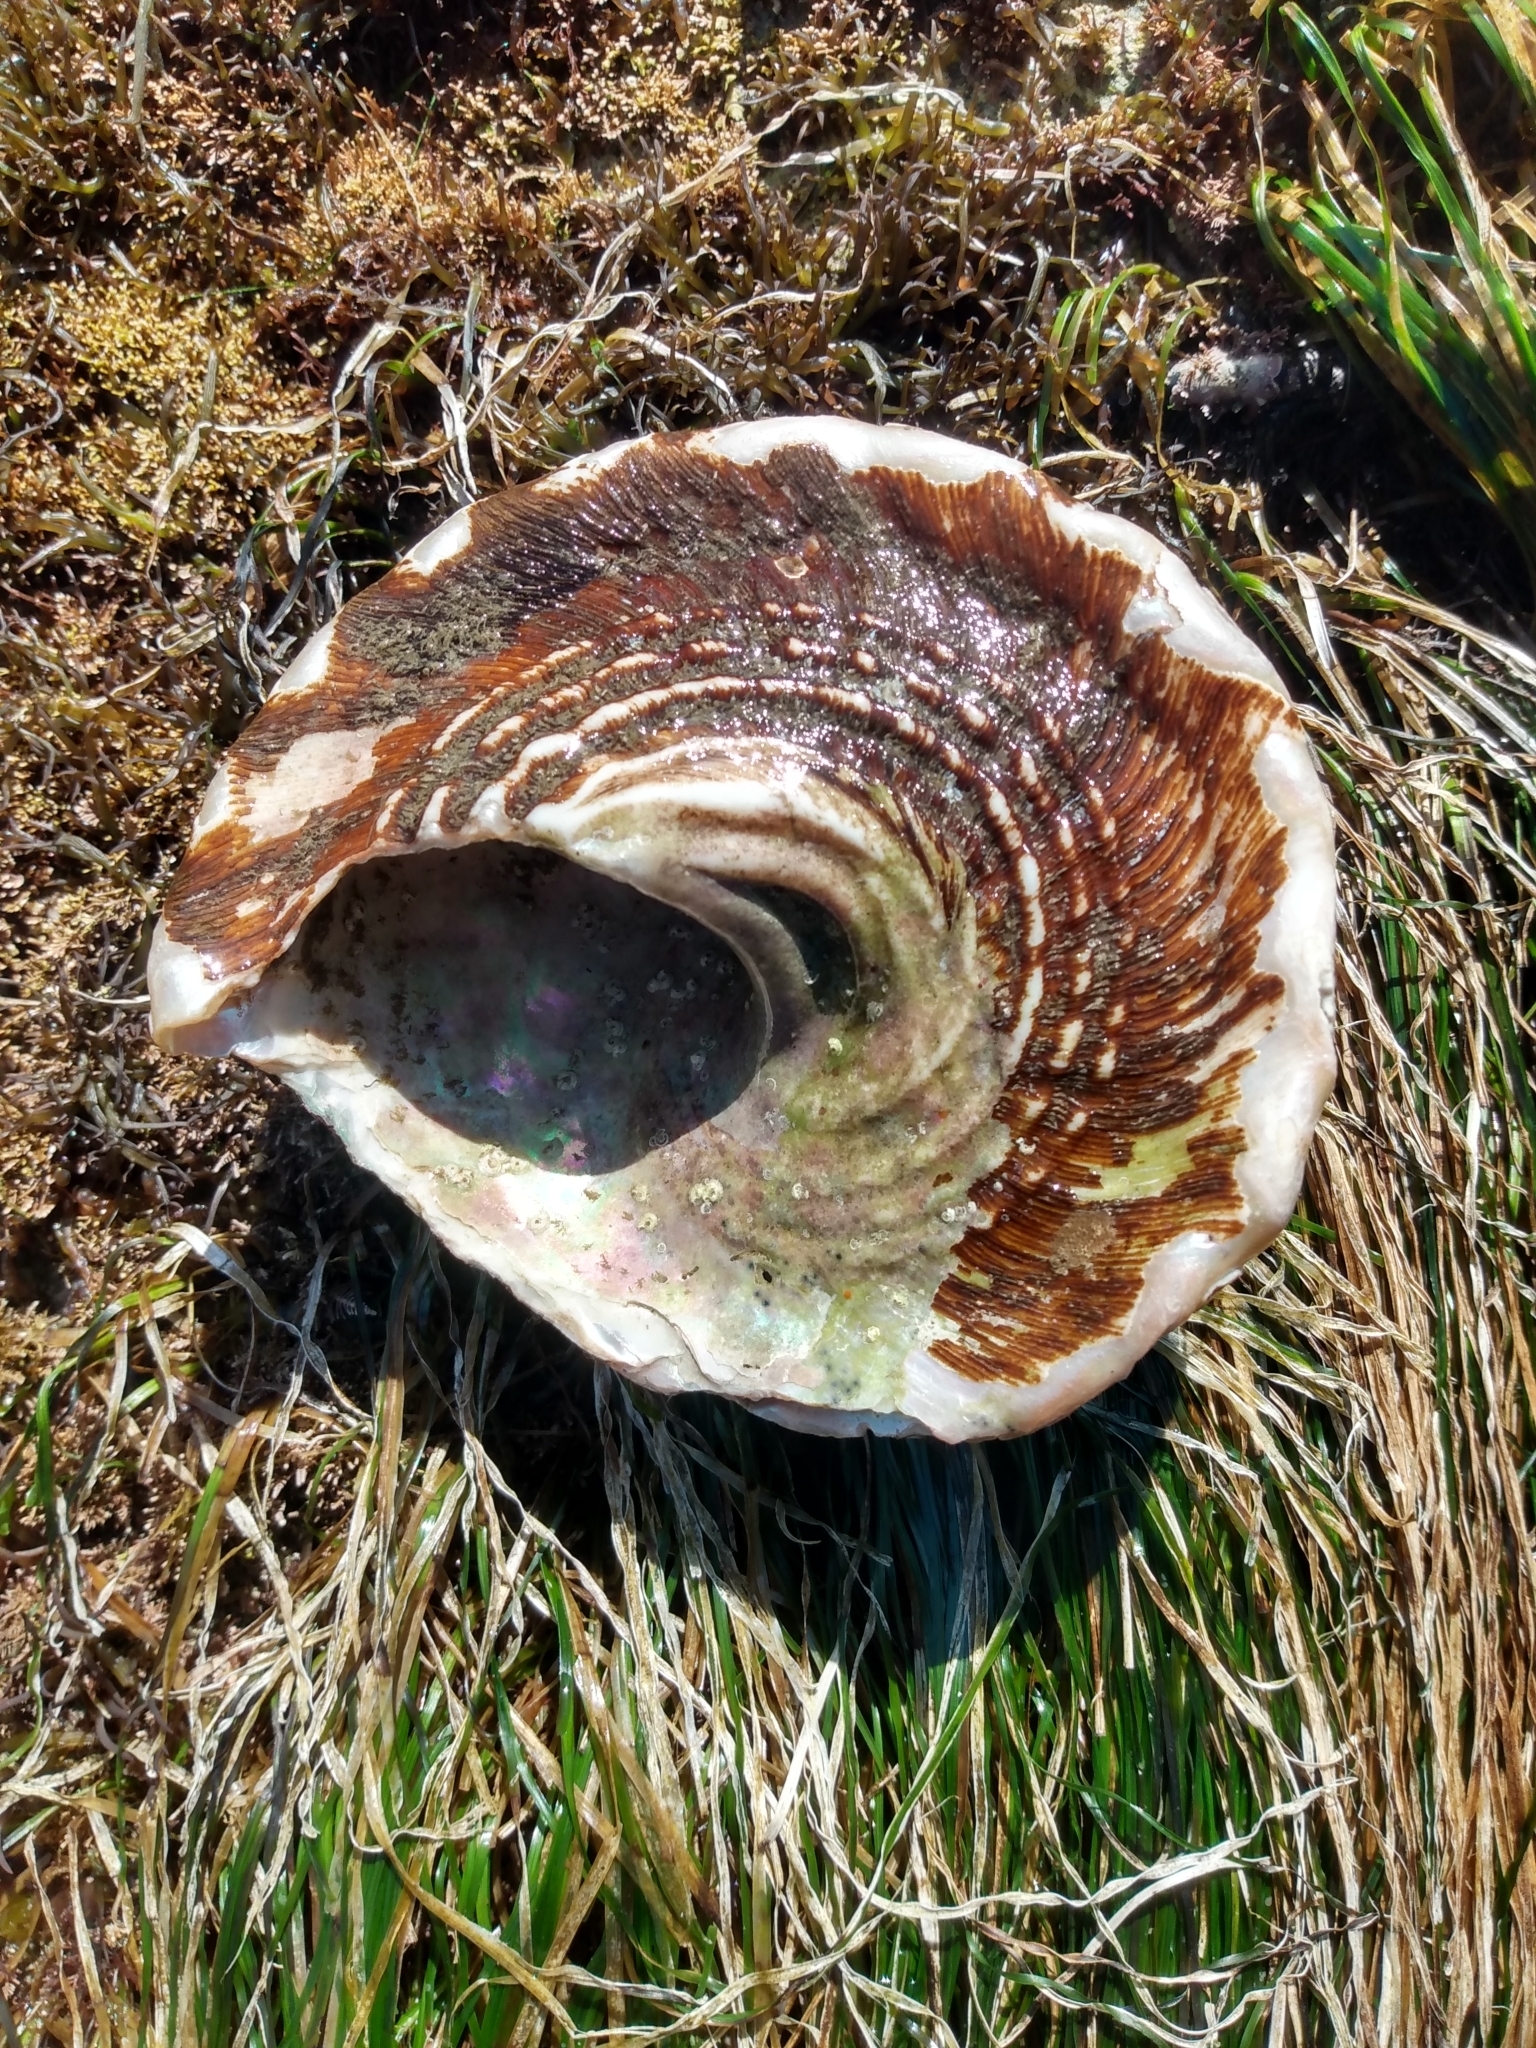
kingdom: Animalia
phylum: Mollusca
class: Gastropoda
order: Trochida
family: Turbinidae
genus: Megastraea
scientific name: Megastraea undosa
